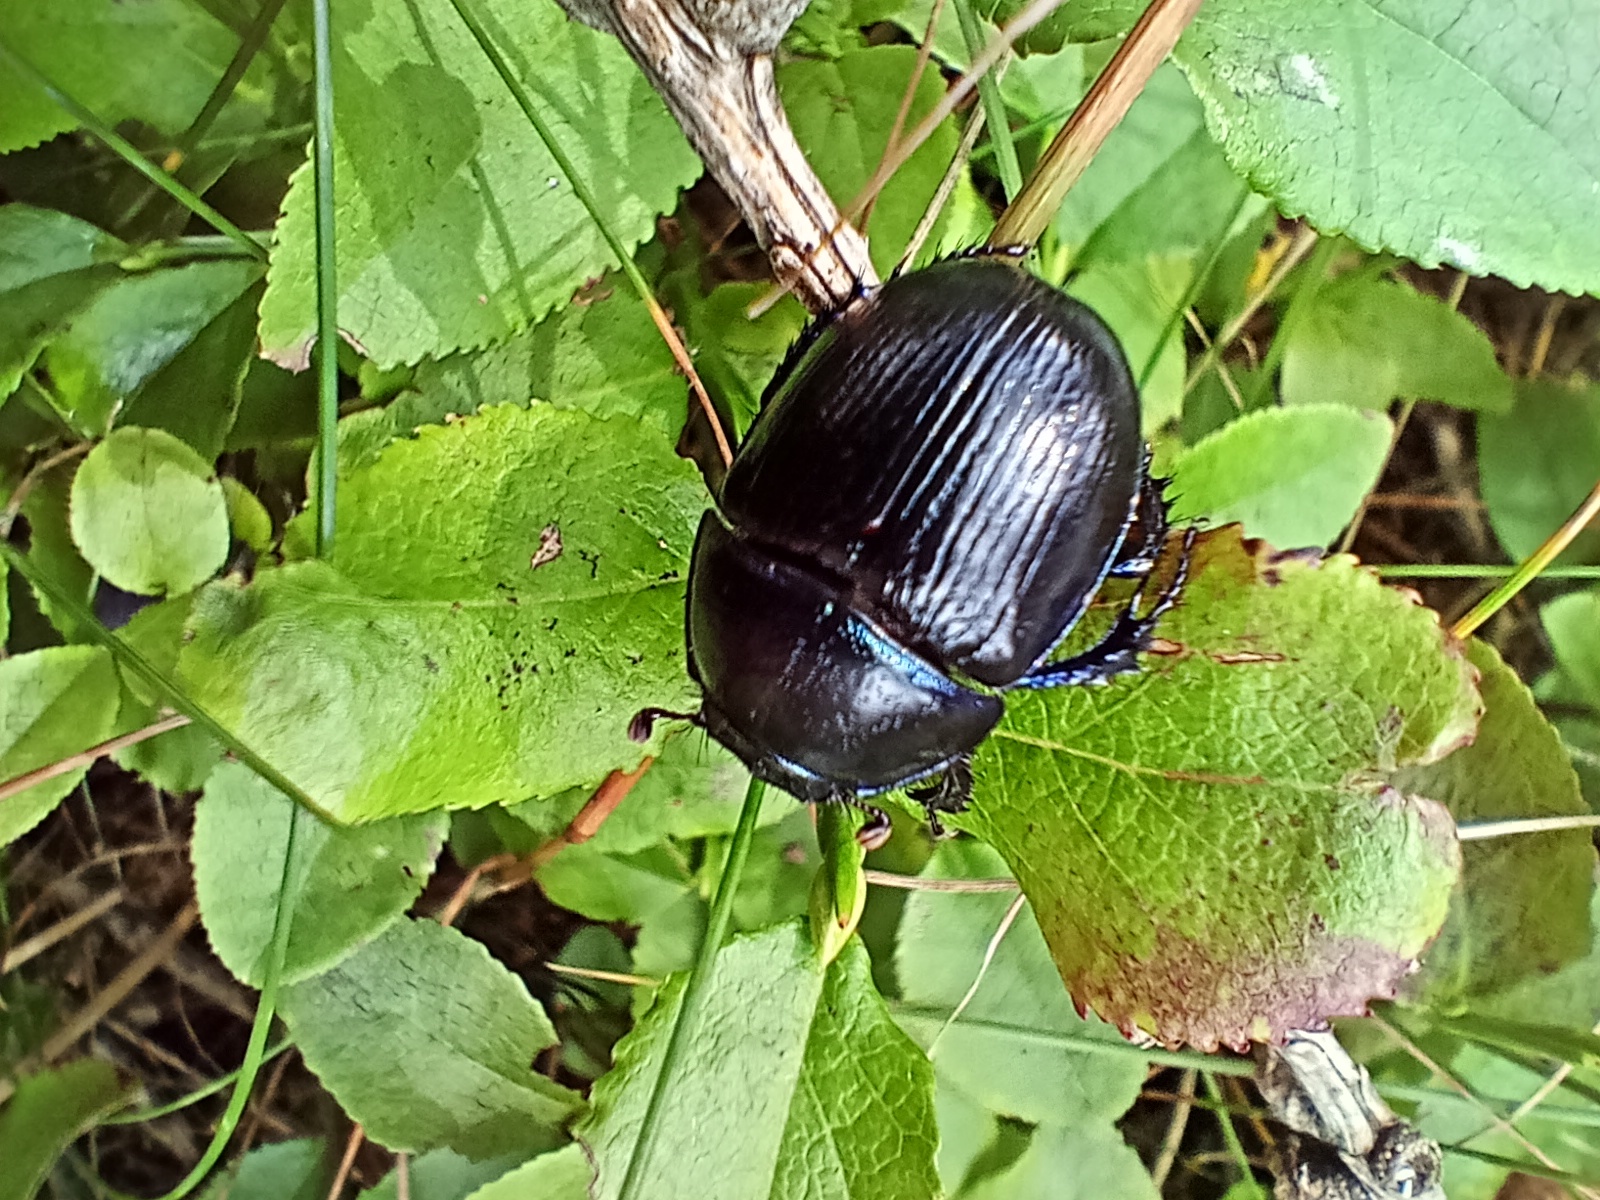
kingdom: Animalia
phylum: Arthropoda
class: Insecta
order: Coleoptera
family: Geotrupidae
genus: Anoplotrupes
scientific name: Anoplotrupes stercorosus
